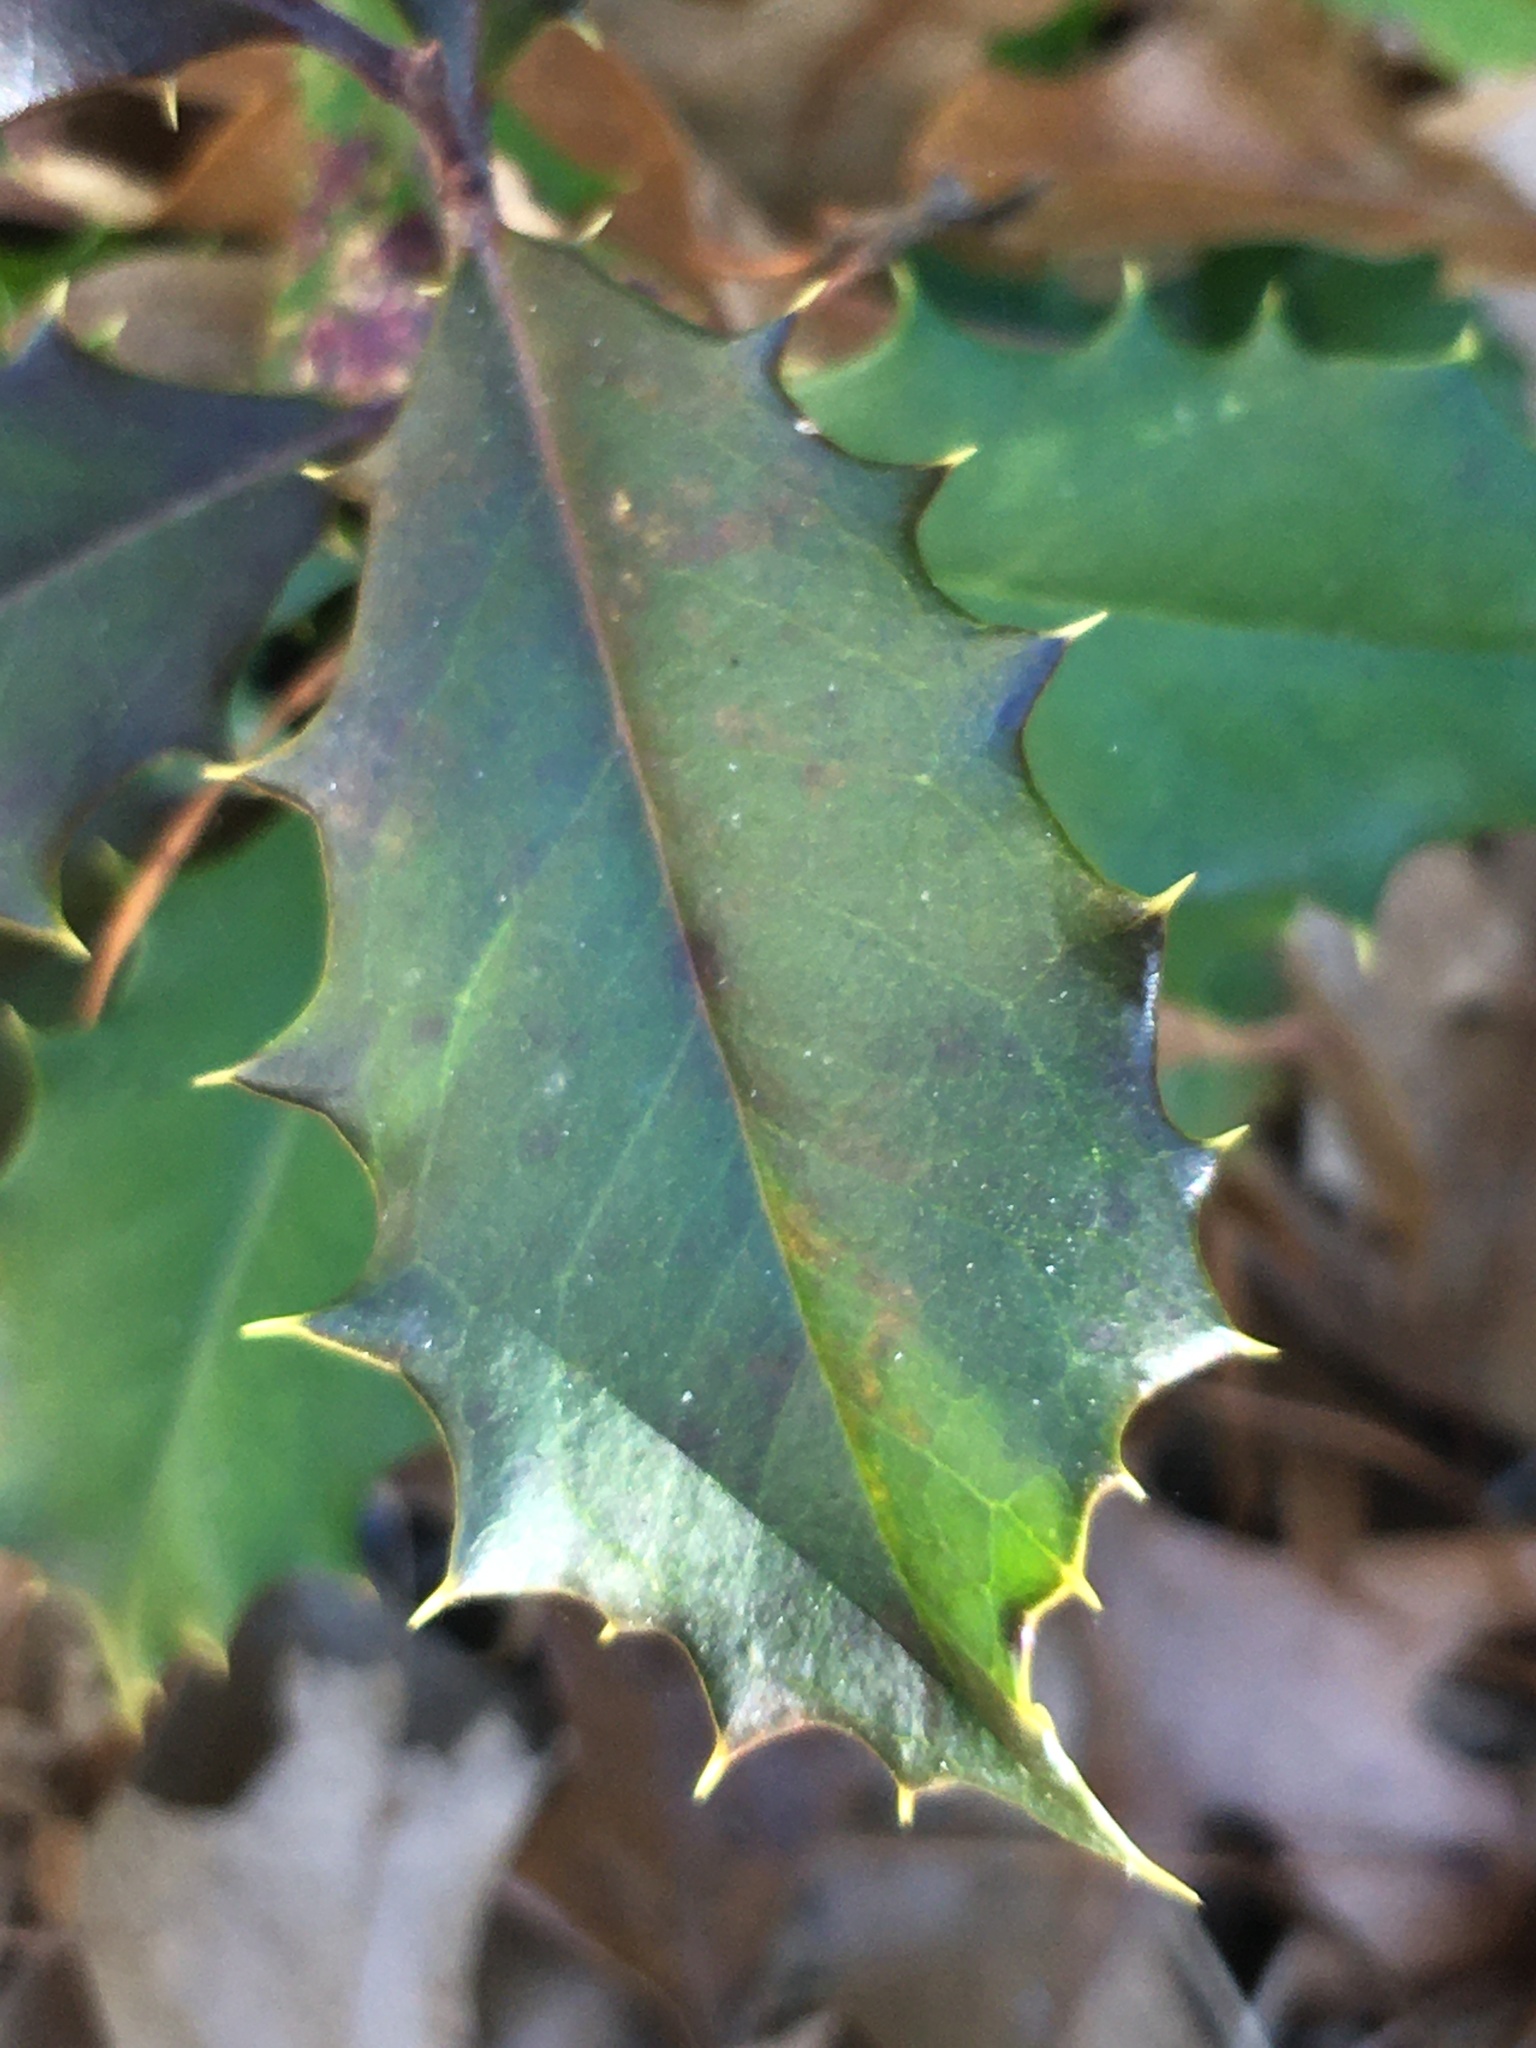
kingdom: Plantae
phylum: Tracheophyta
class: Magnoliopsida
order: Aquifoliales
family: Aquifoliaceae
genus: Ilex
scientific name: Ilex opaca
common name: American holly
